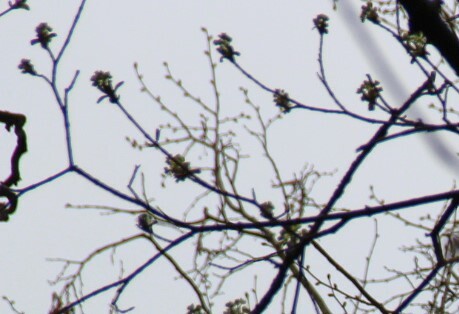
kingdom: Plantae
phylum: Tracheophyta
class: Magnoliopsida
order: Sapindales
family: Sapindaceae
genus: Acer
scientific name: Acer platanoides
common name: Norway maple
